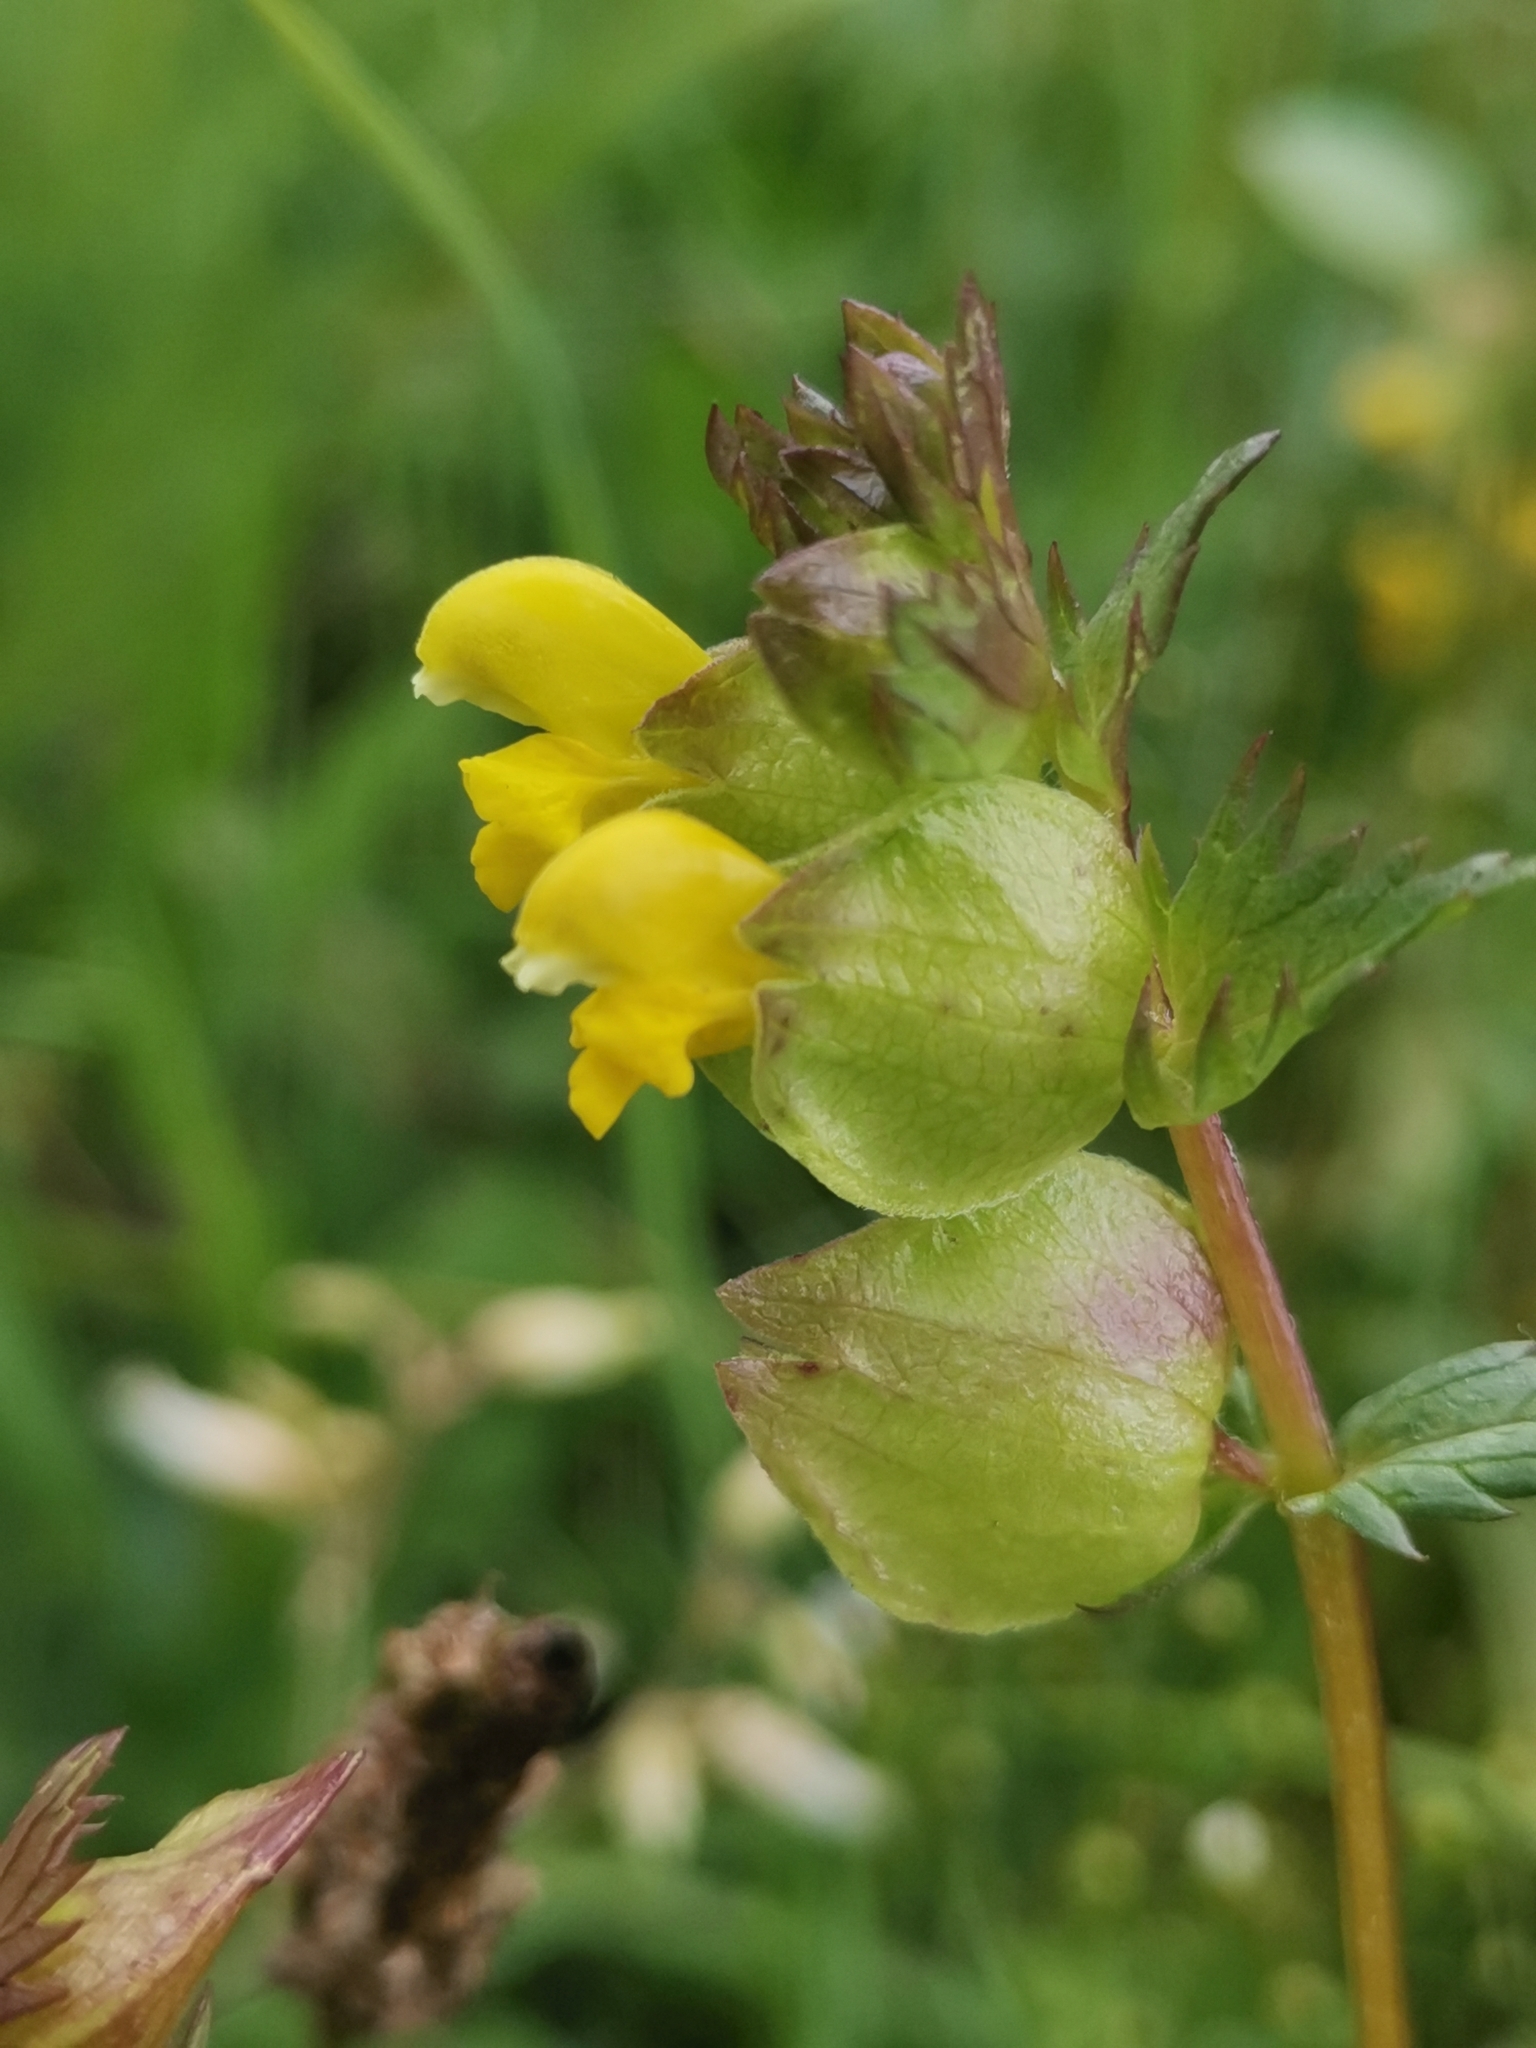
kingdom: Plantae
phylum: Tracheophyta
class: Magnoliopsida
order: Lamiales
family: Orobanchaceae
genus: Rhinanthus
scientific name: Rhinanthus minor
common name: Yellow-rattle
